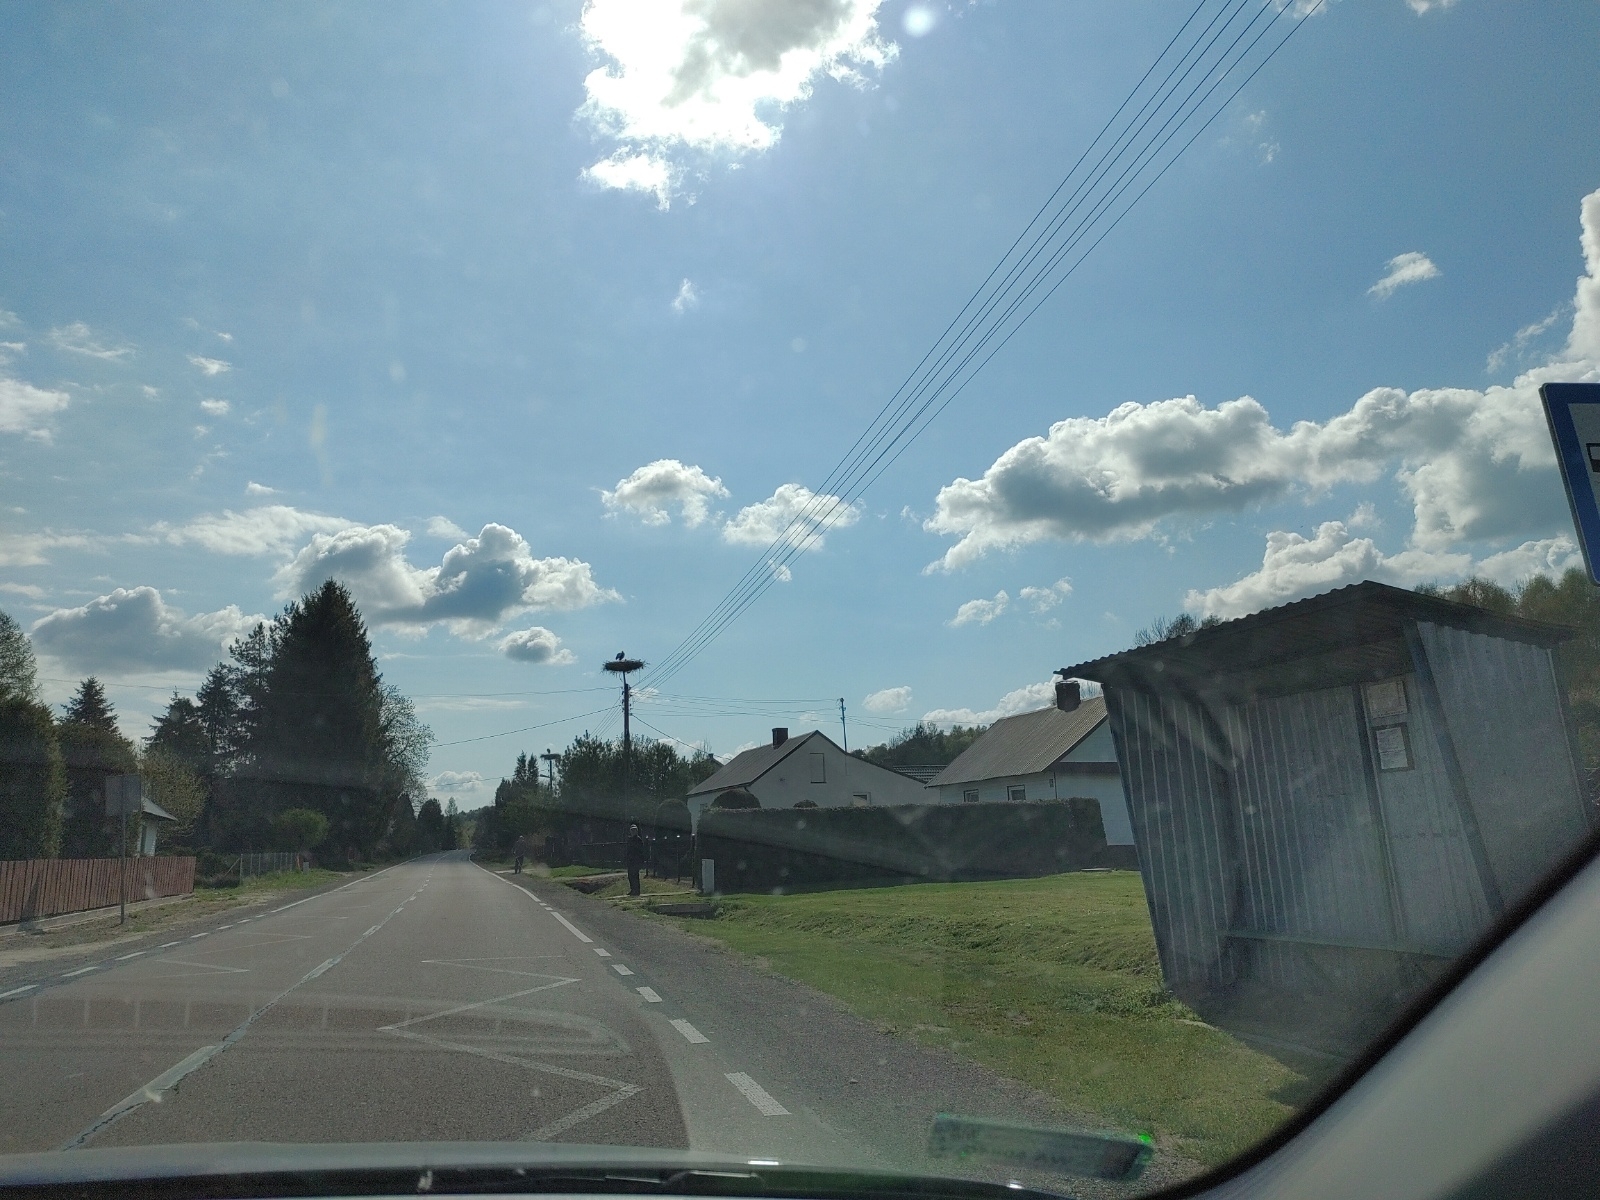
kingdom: Animalia
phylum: Chordata
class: Aves
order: Ciconiiformes
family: Ciconiidae
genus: Ciconia
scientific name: Ciconia ciconia
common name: White stork
